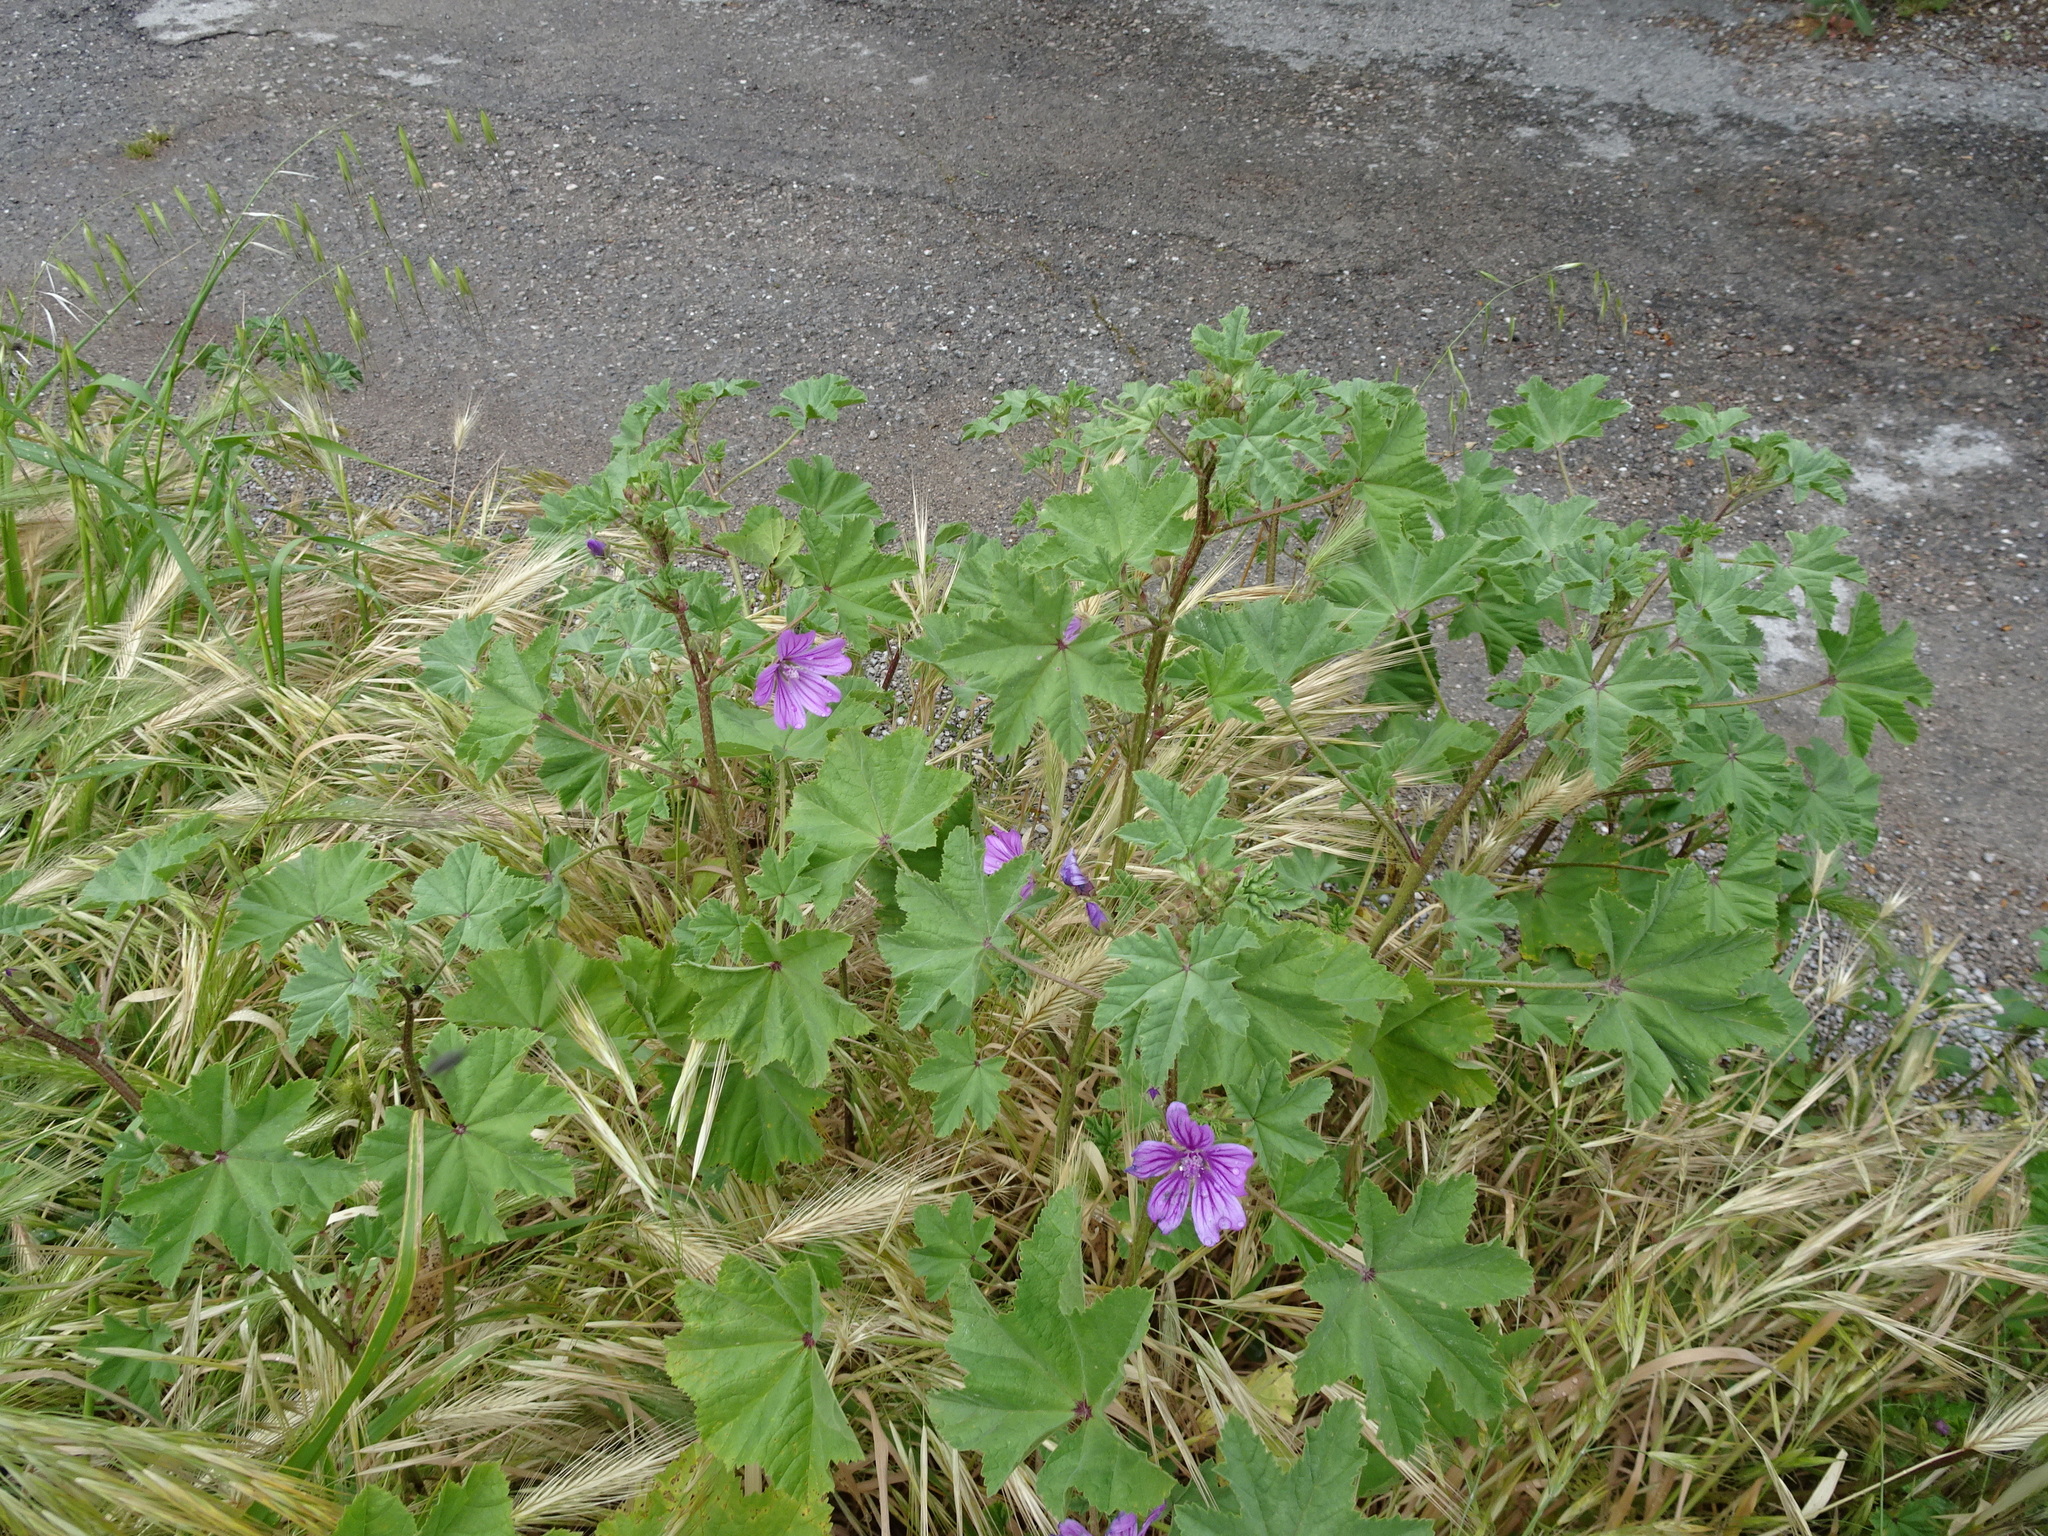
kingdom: Plantae
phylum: Tracheophyta
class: Magnoliopsida
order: Malvales
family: Malvaceae
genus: Malva
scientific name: Malva sylvestris
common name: Common mallow
